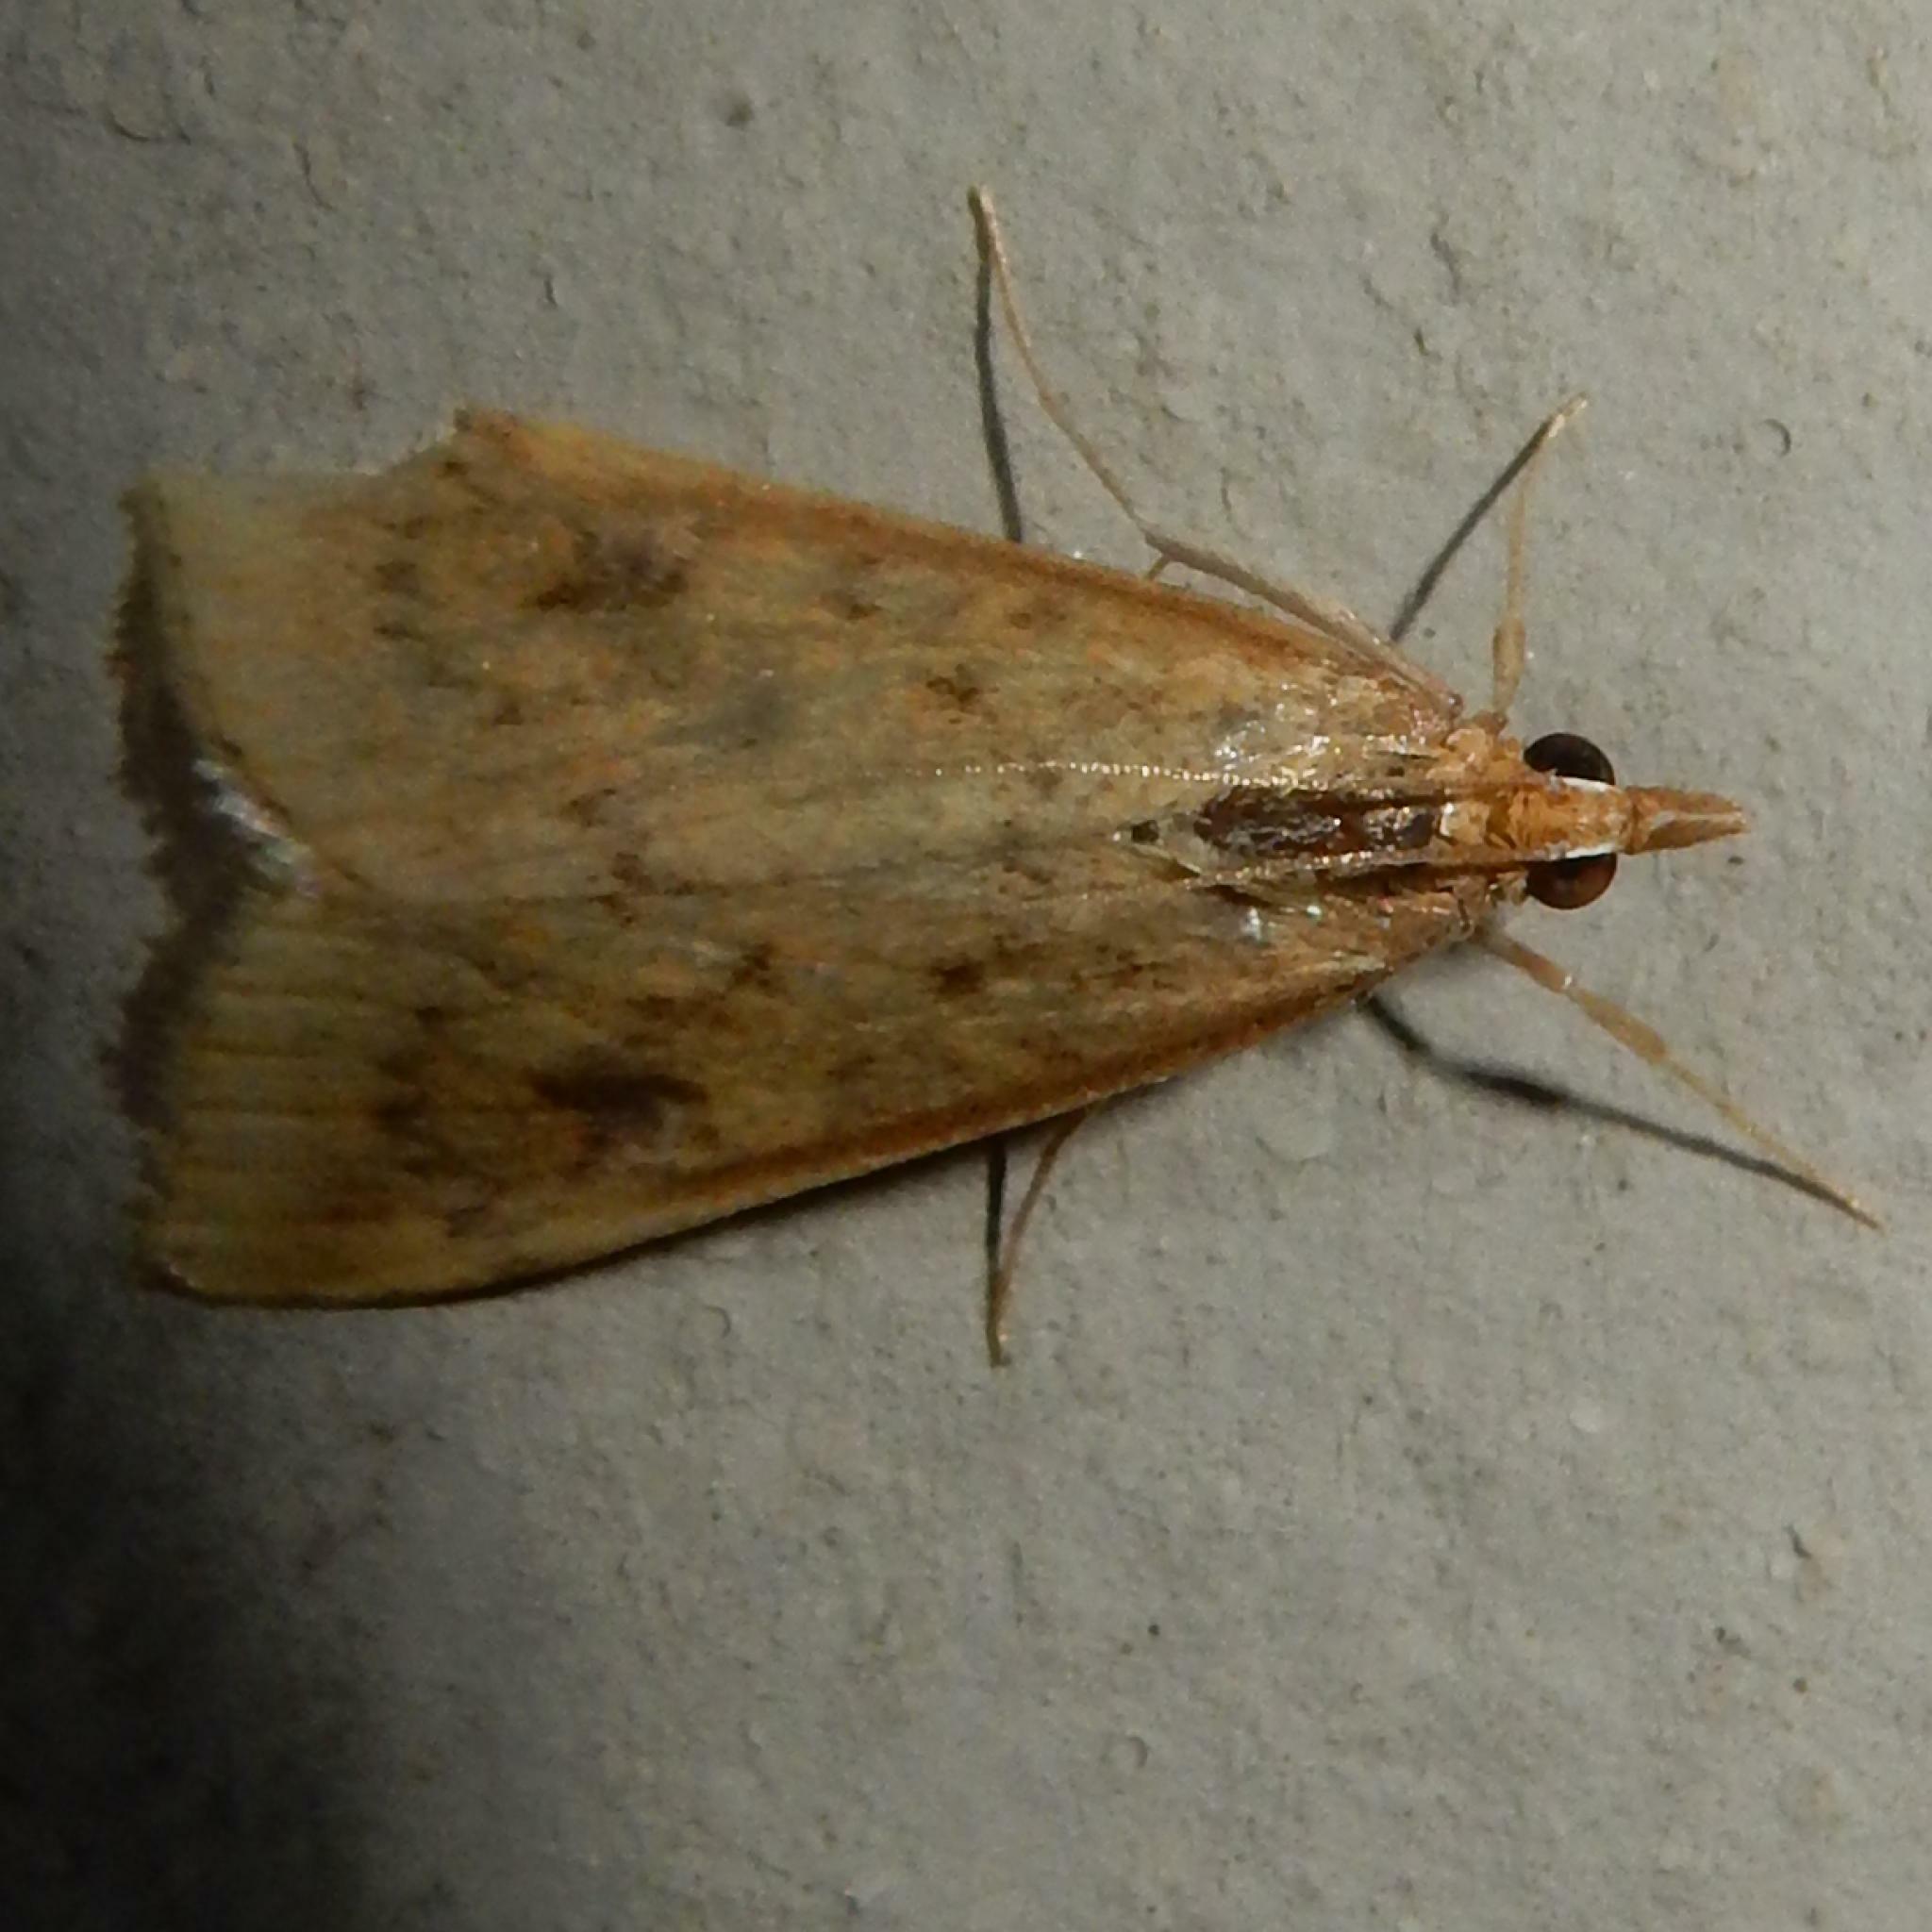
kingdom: Animalia
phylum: Arthropoda
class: Insecta
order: Lepidoptera
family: Crambidae
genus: Udea
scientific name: Udea ferrugalis
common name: Rusty dot
